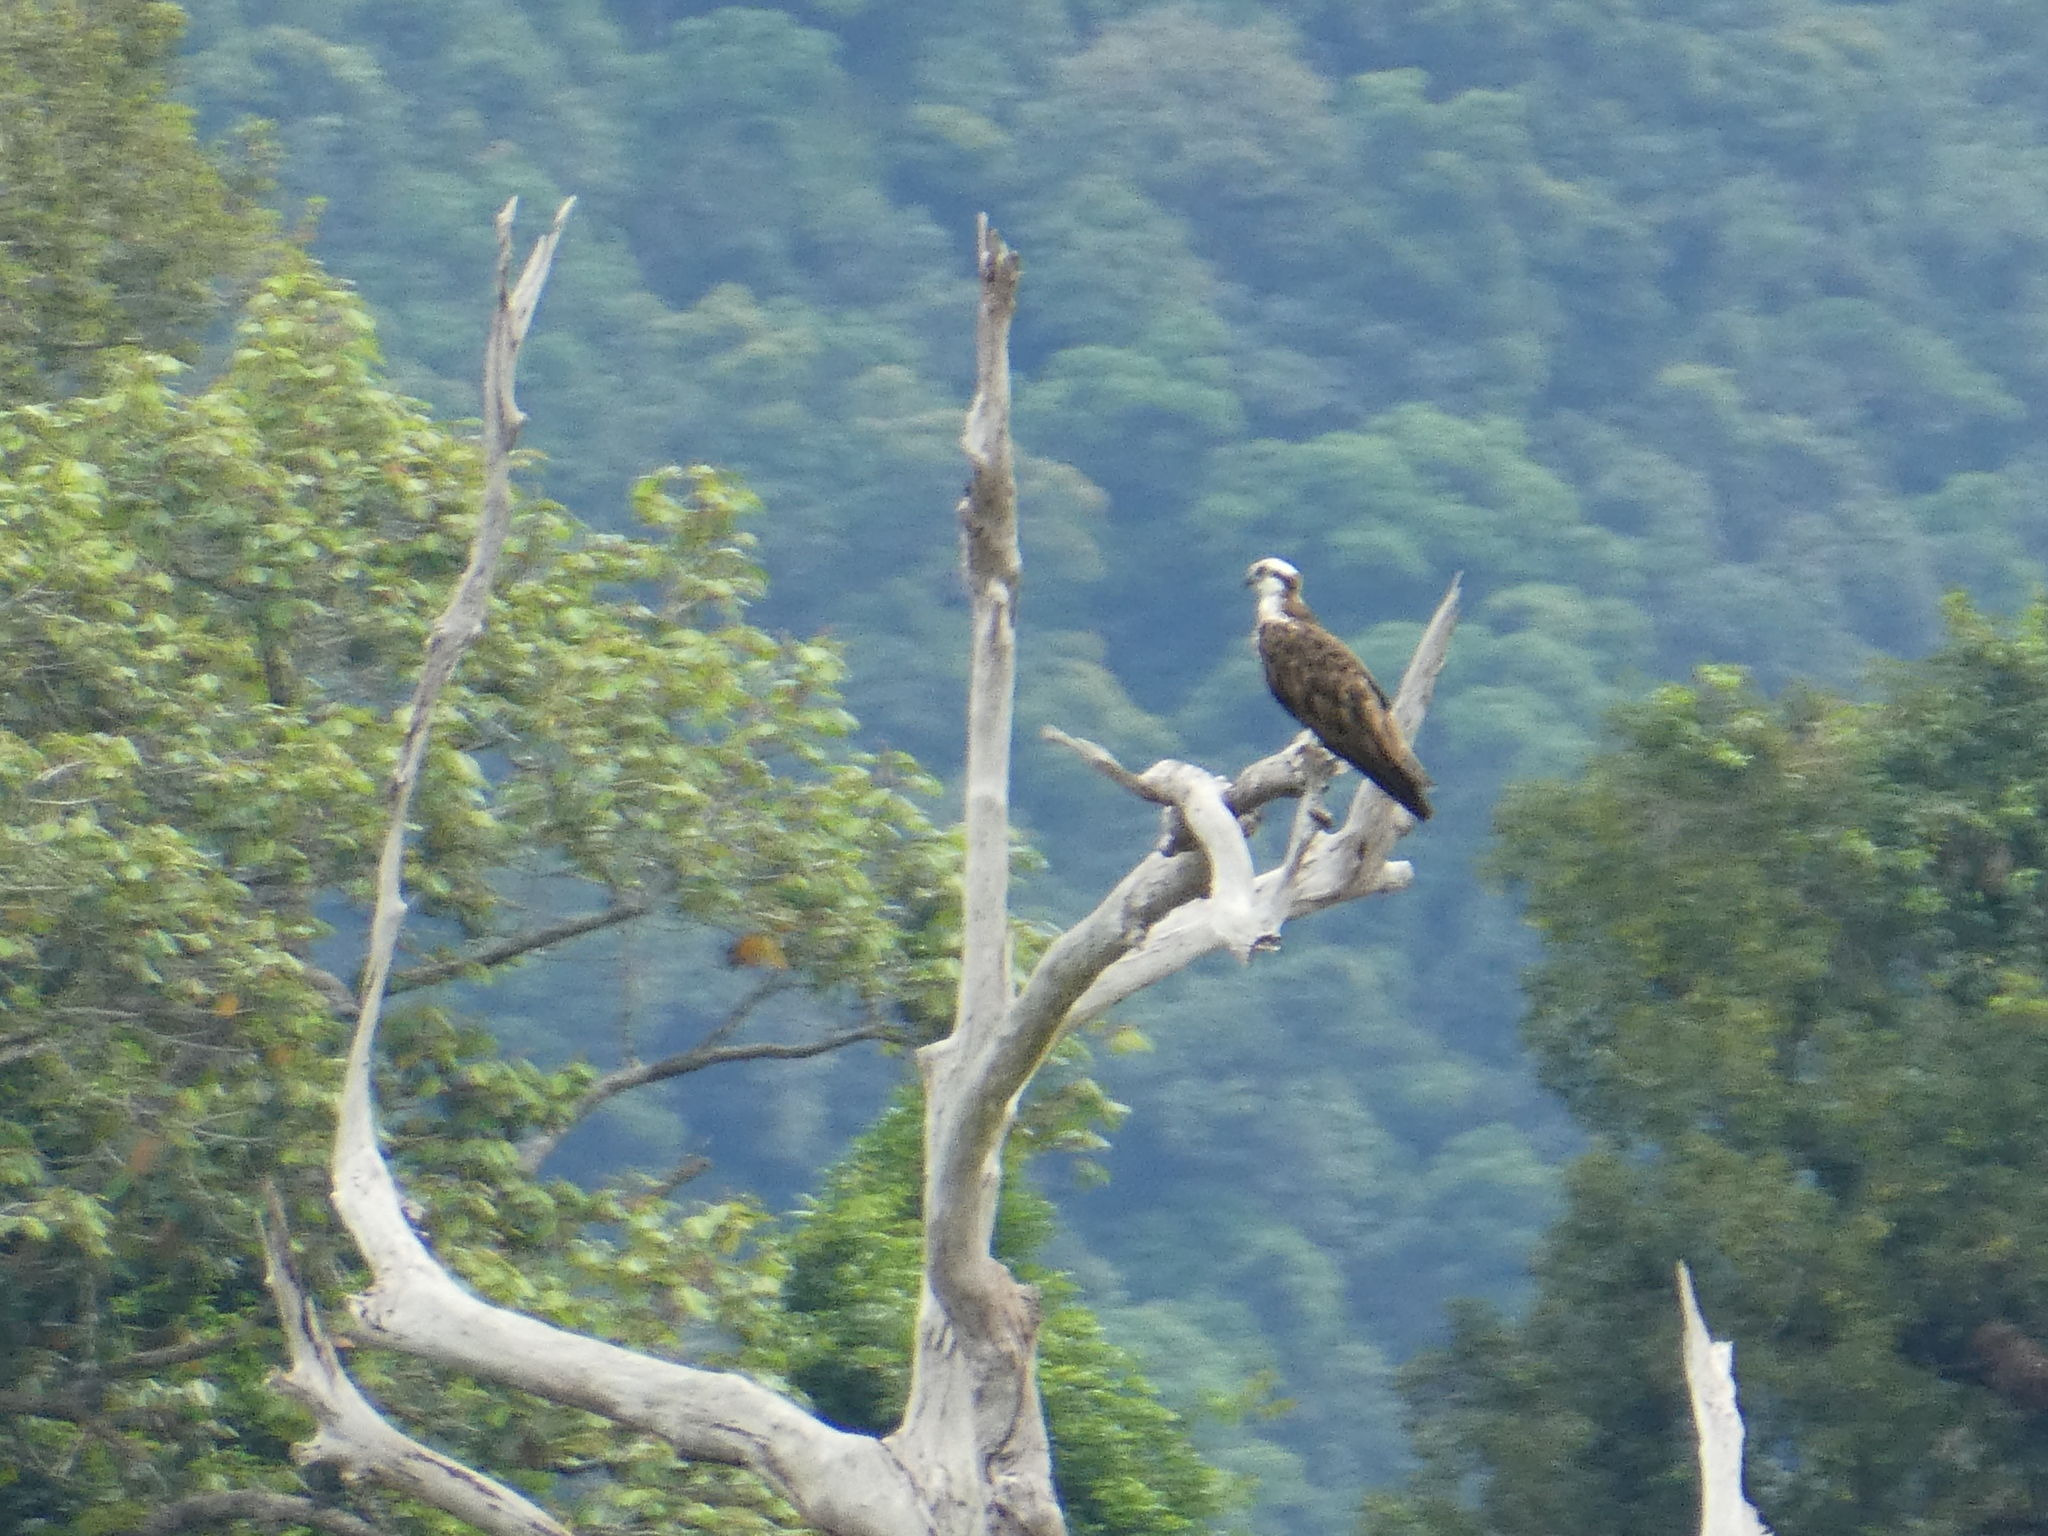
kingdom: Animalia
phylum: Chordata
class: Aves
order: Accipitriformes
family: Pandionidae
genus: Pandion
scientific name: Pandion haliaetus
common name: Osprey
